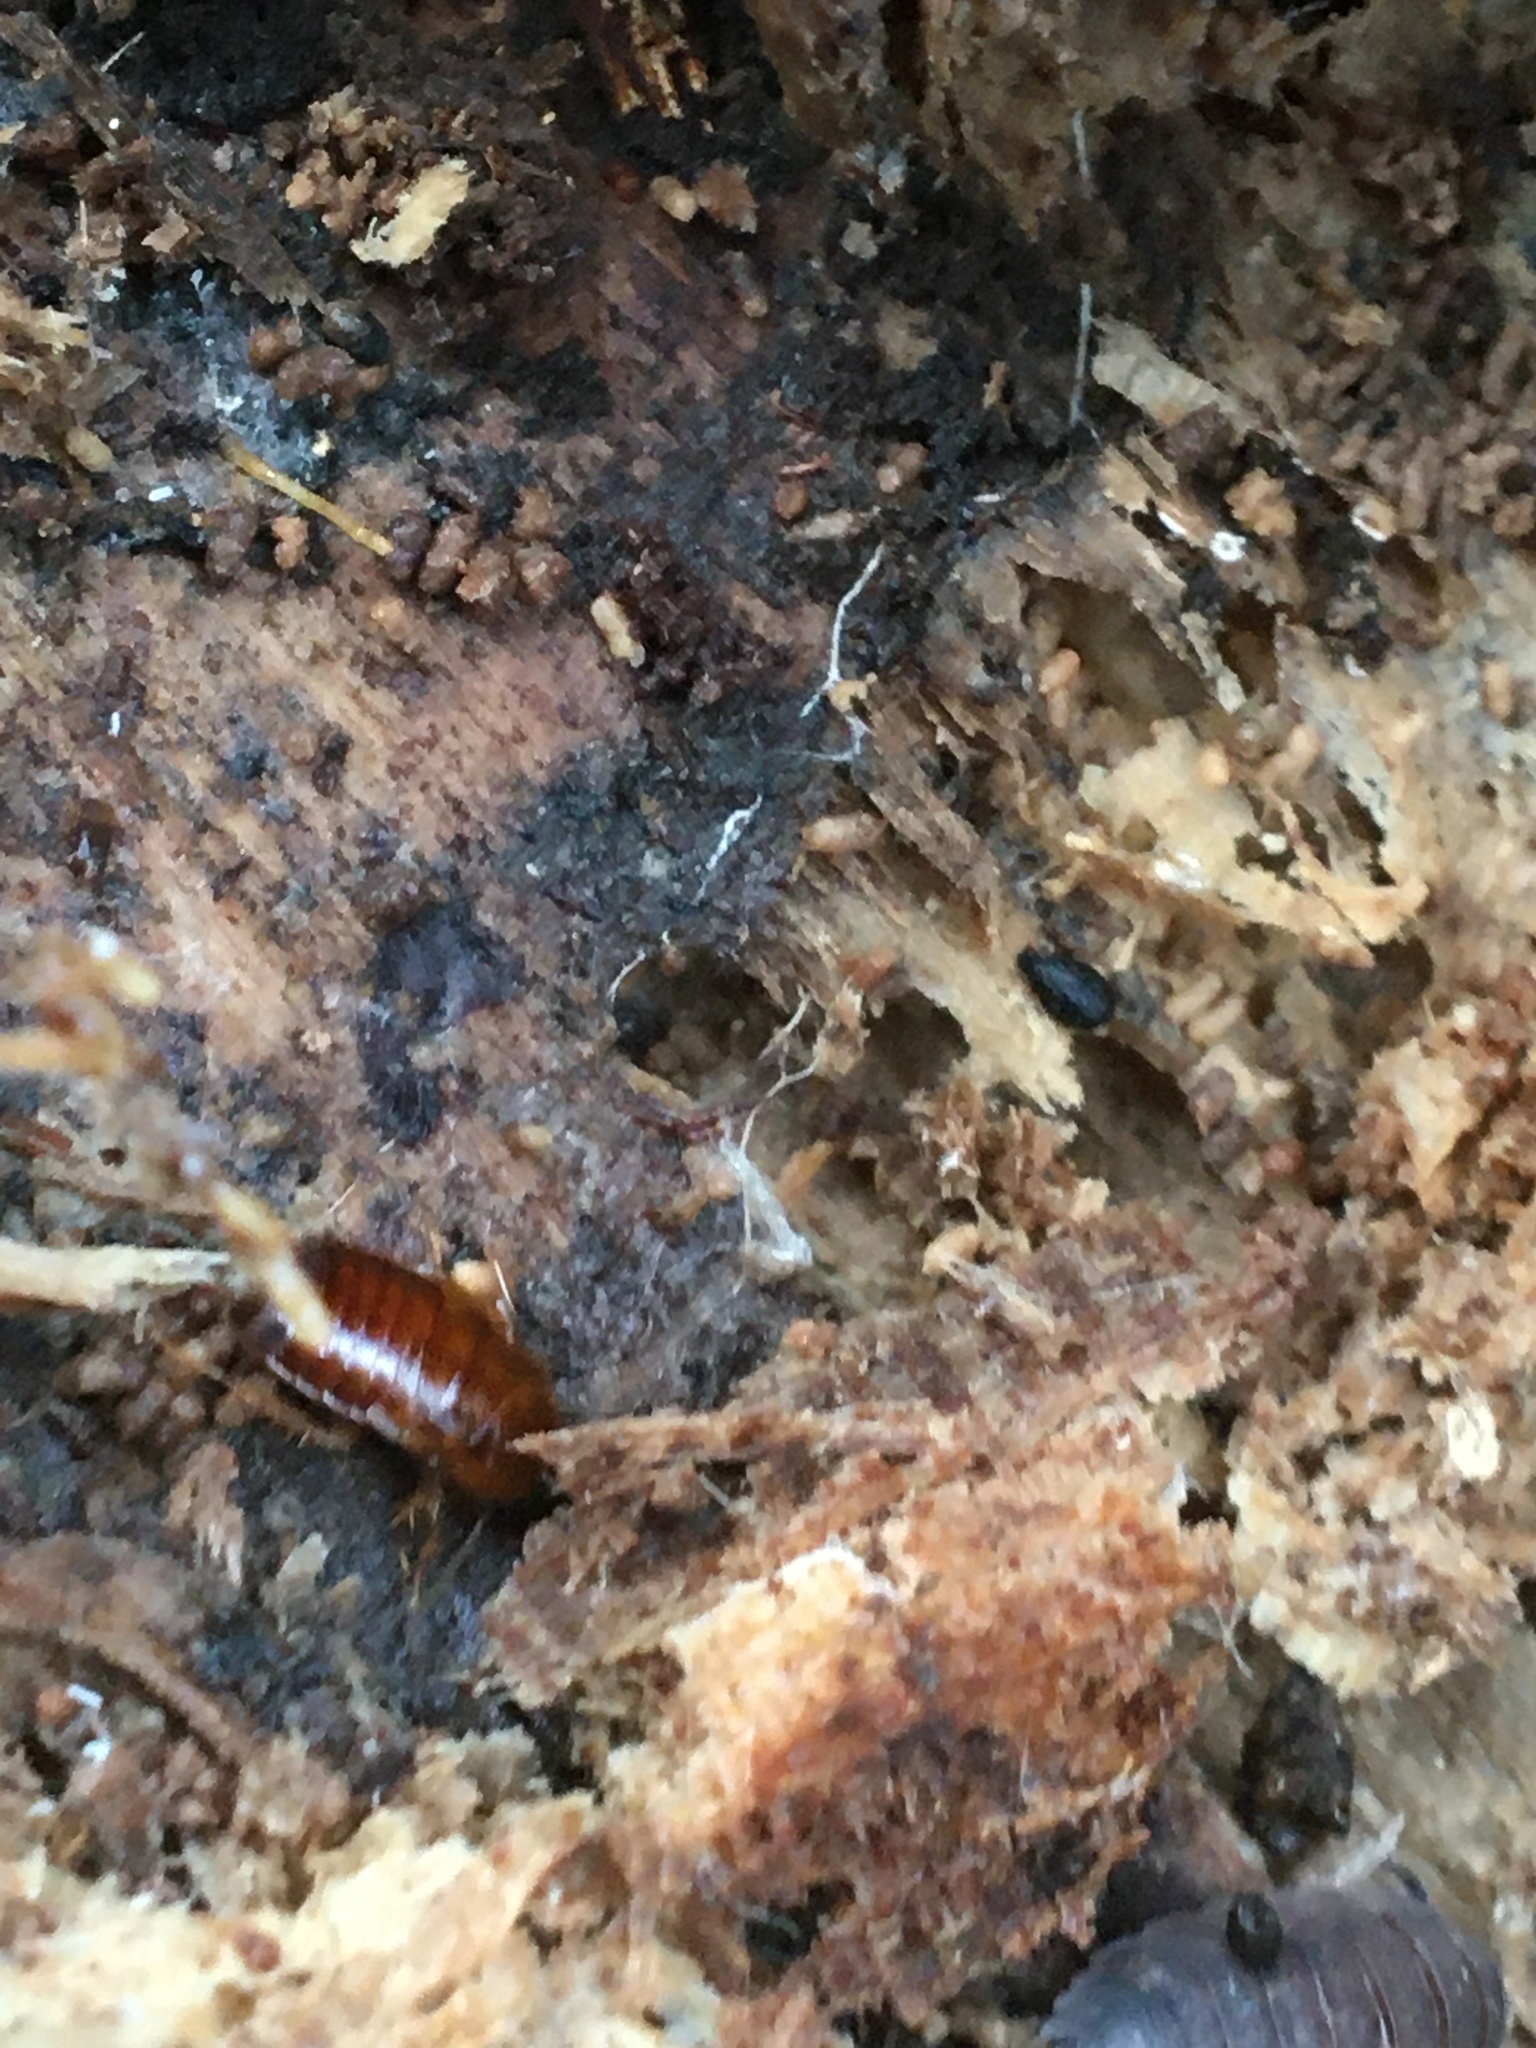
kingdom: Animalia
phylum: Arthropoda
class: Insecta
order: Blattodea
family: Ectobiidae
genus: Parcoblatta
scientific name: Parcoblatta
